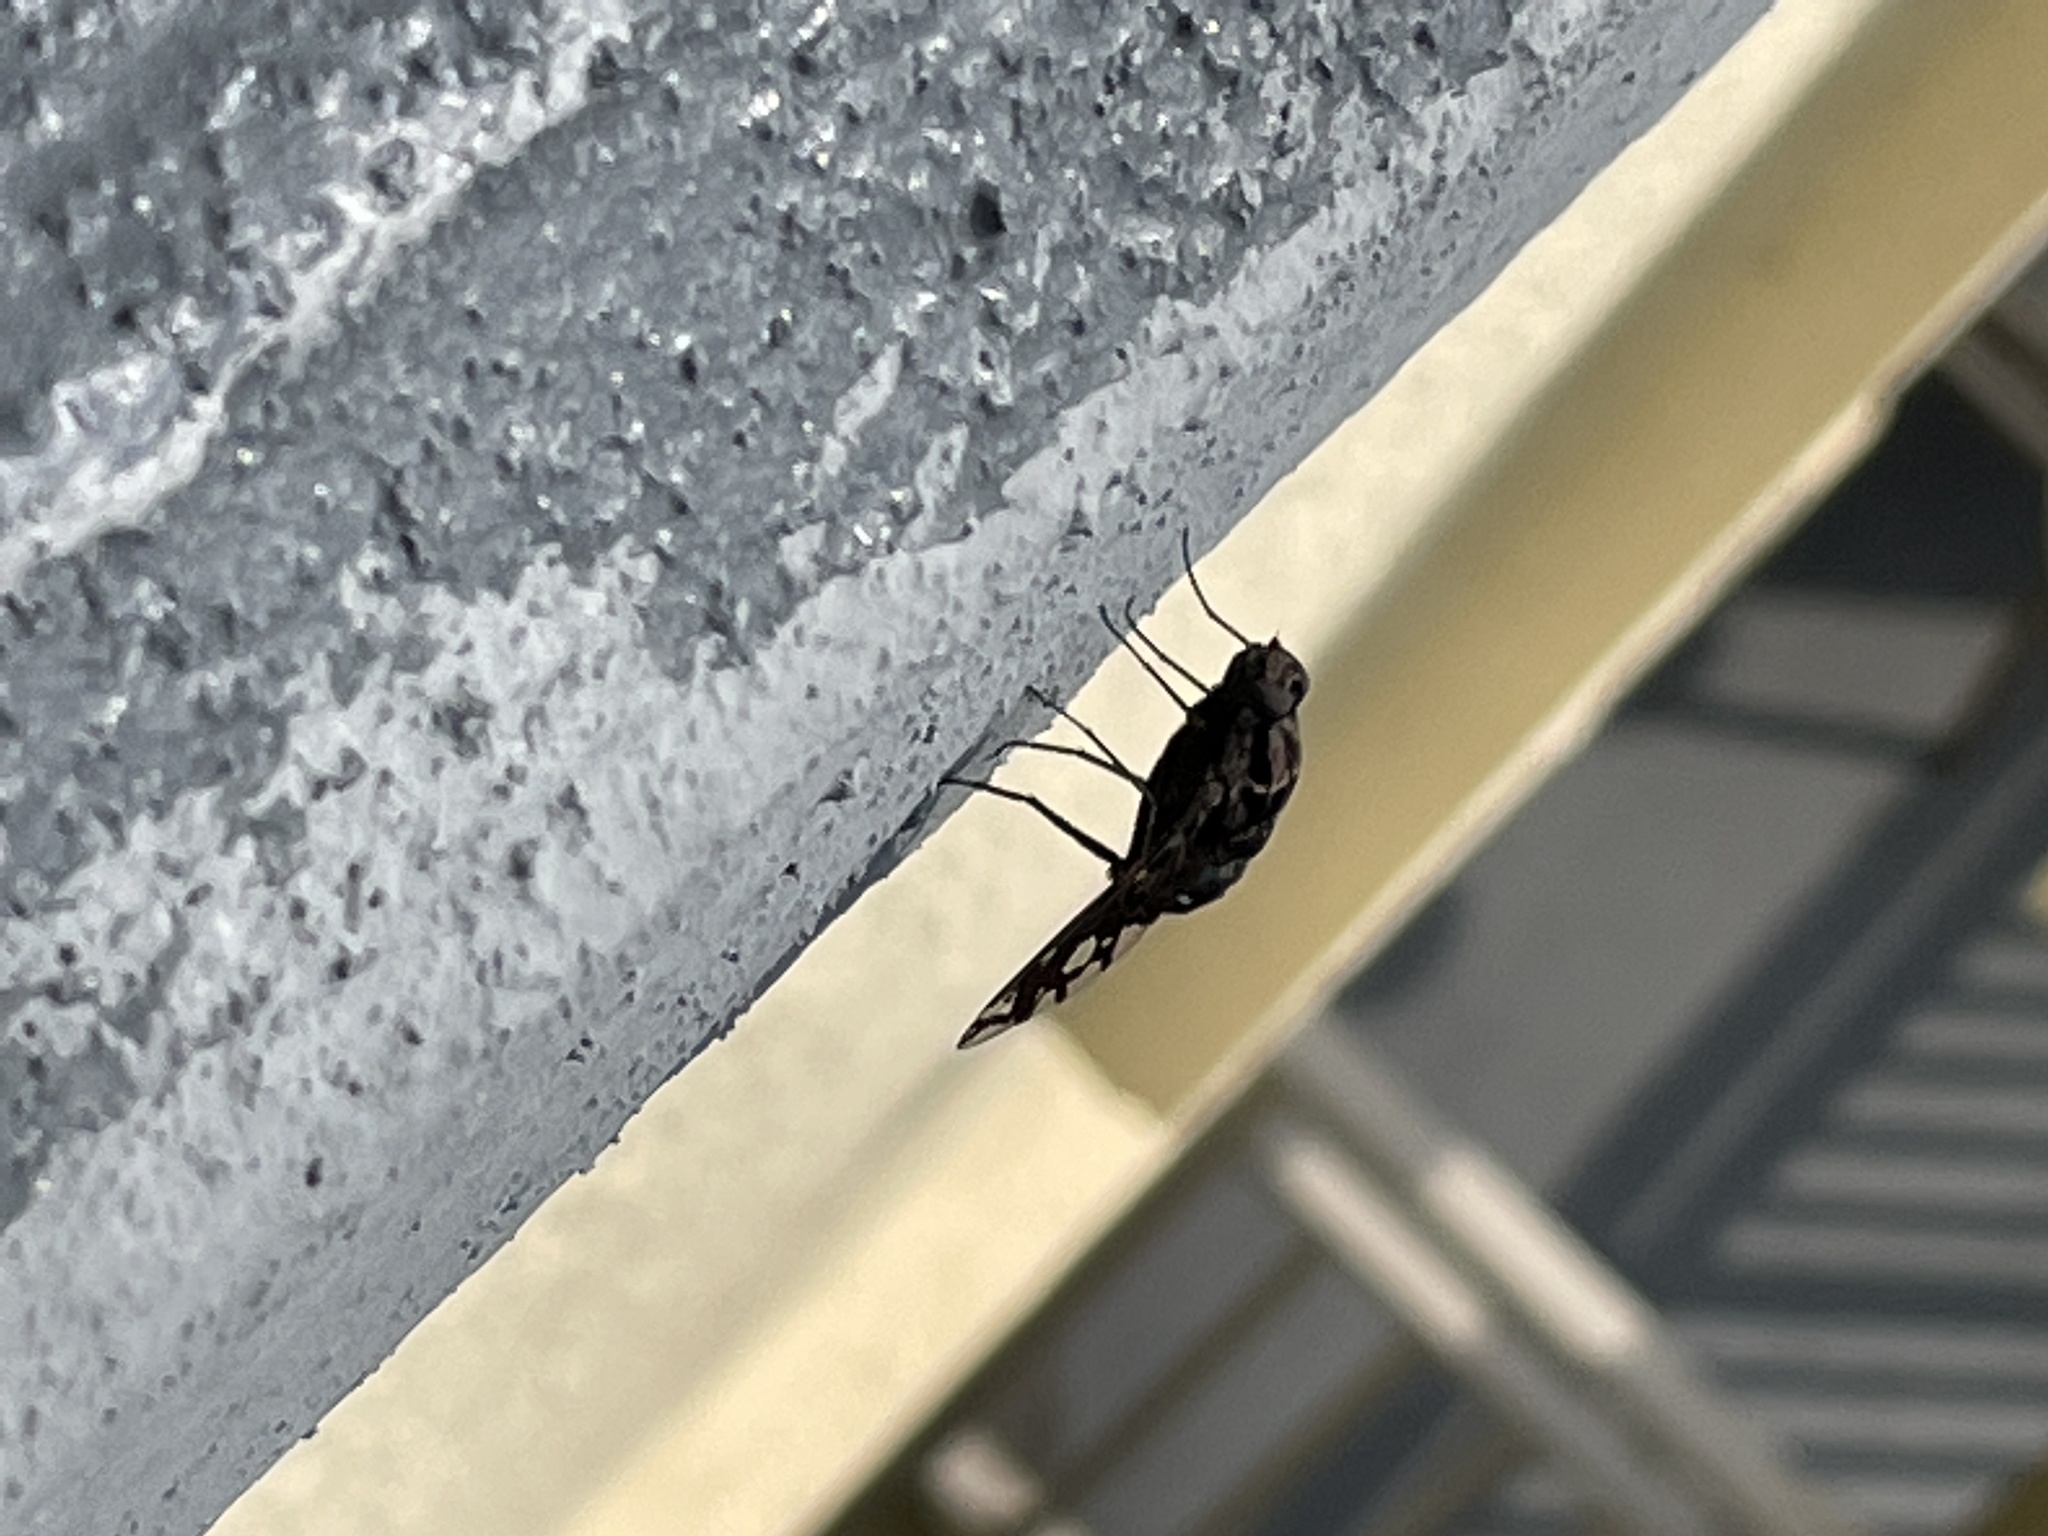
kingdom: Animalia
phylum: Arthropoda
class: Insecta
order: Diptera
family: Bombyliidae
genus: Xenox
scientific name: Xenox tigrinus
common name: Tiger bee fly
